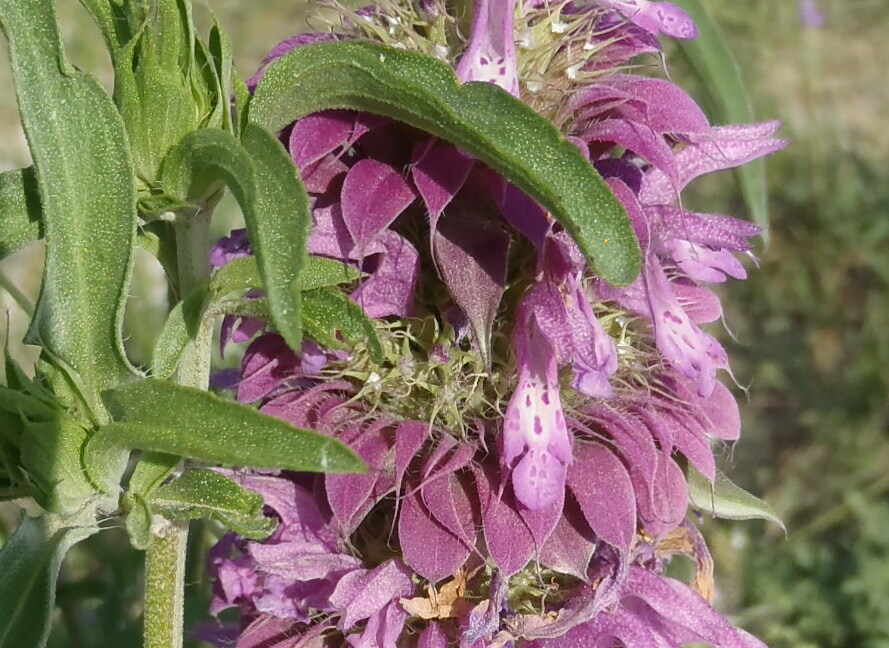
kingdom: Plantae
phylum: Tracheophyta
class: Magnoliopsida
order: Lamiales
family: Lamiaceae
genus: Monarda
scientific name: Monarda citriodora
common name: Lemon beebalm
